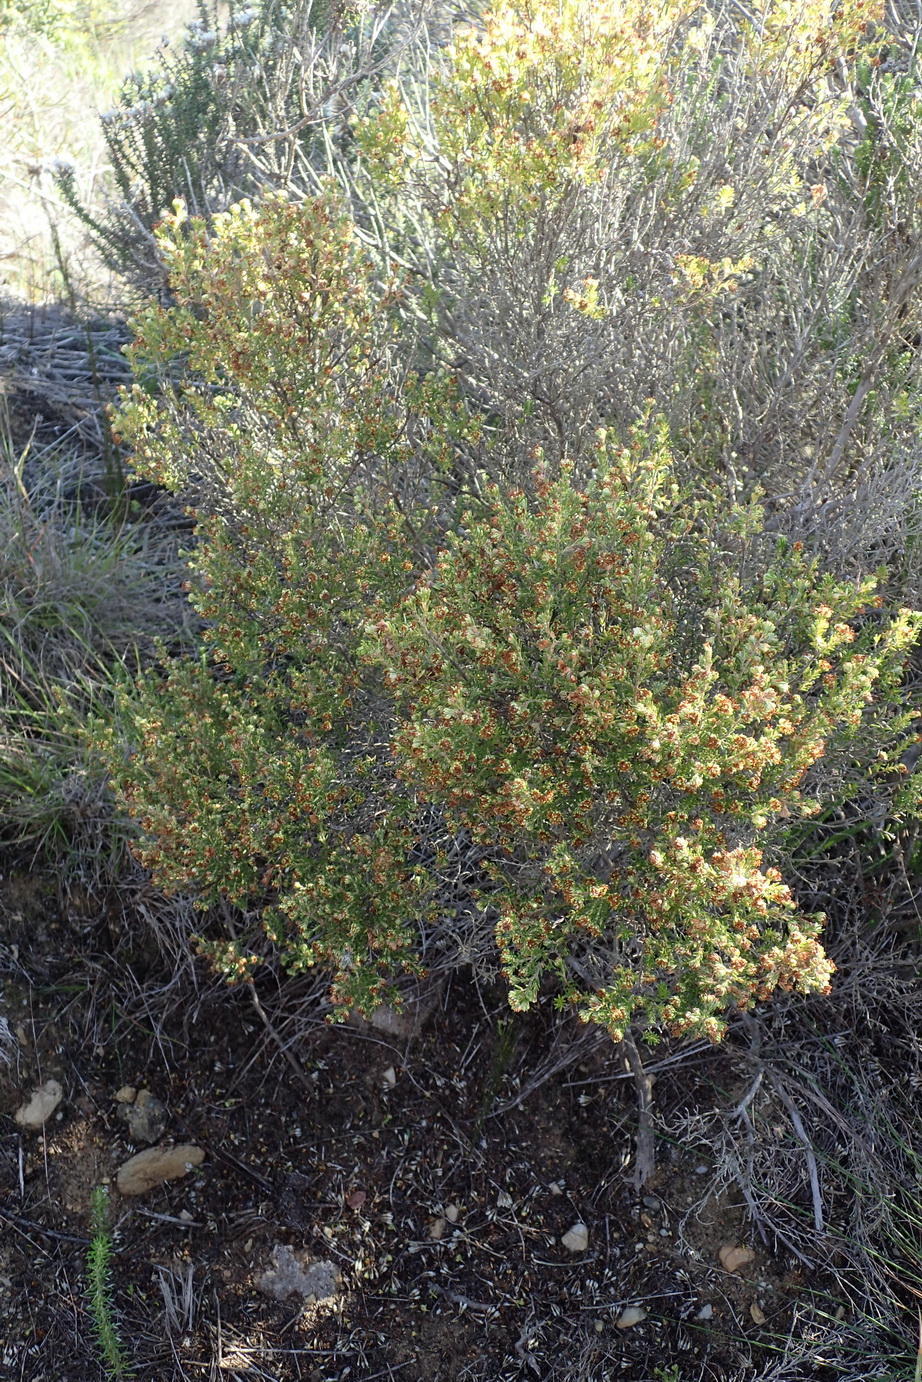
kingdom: Plantae
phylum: Tracheophyta
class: Magnoliopsida
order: Ericales
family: Ericaceae
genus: Erica
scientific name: Erica glumiflora
